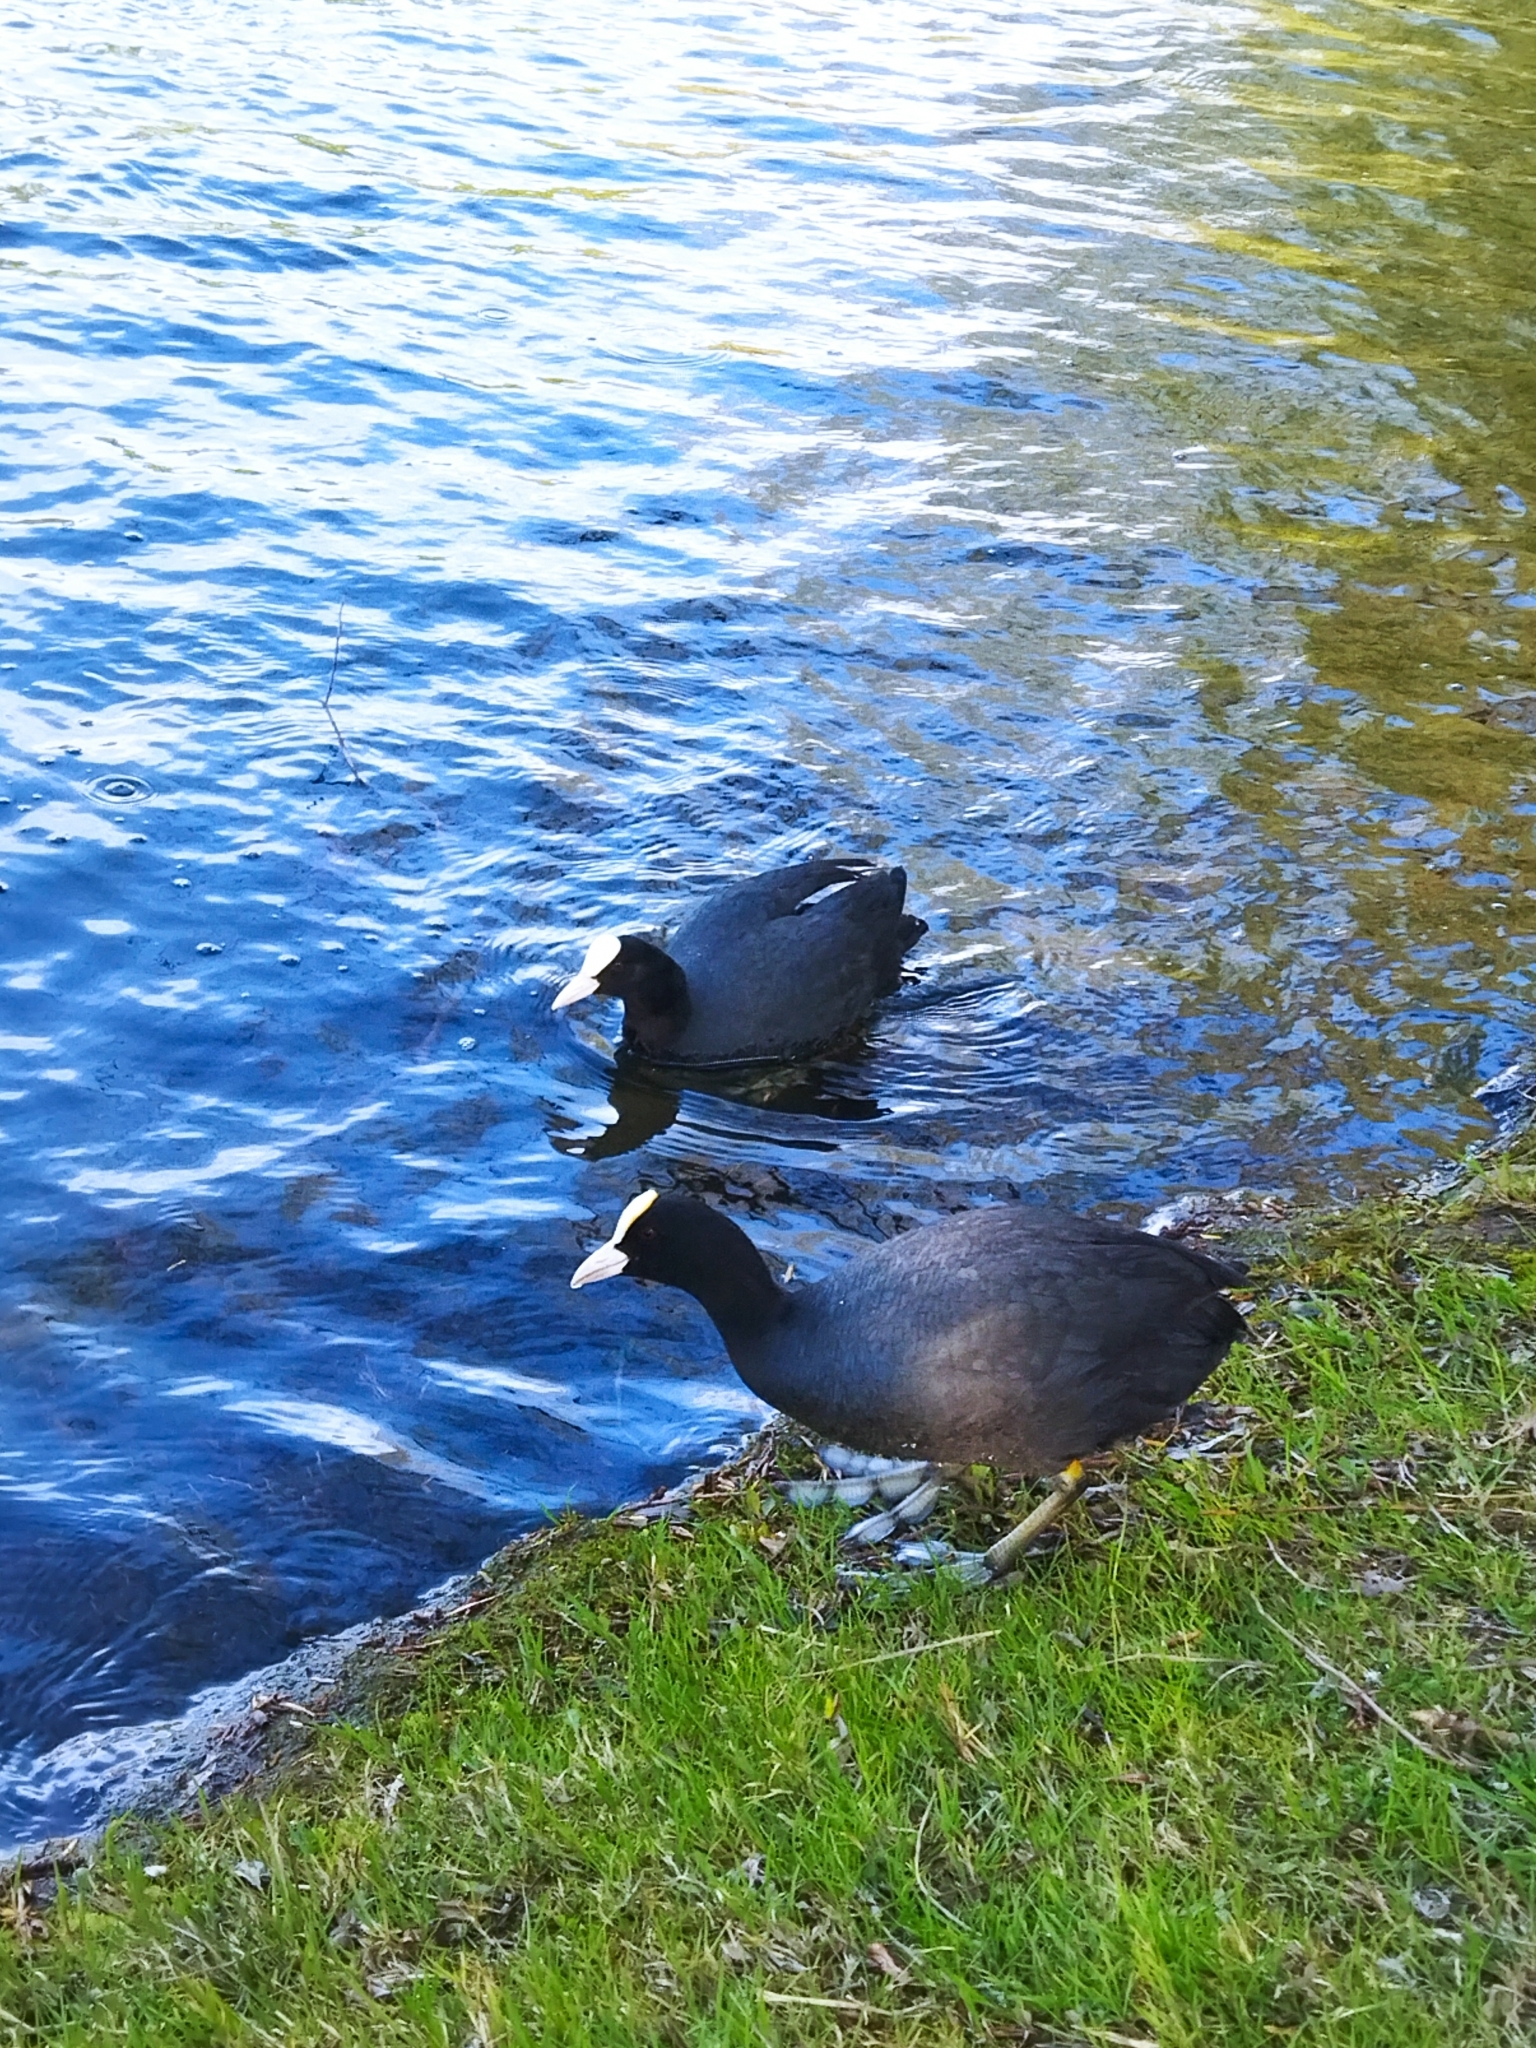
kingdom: Animalia
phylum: Chordata
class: Aves
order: Gruiformes
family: Rallidae
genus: Fulica
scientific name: Fulica atra
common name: Eurasian coot
